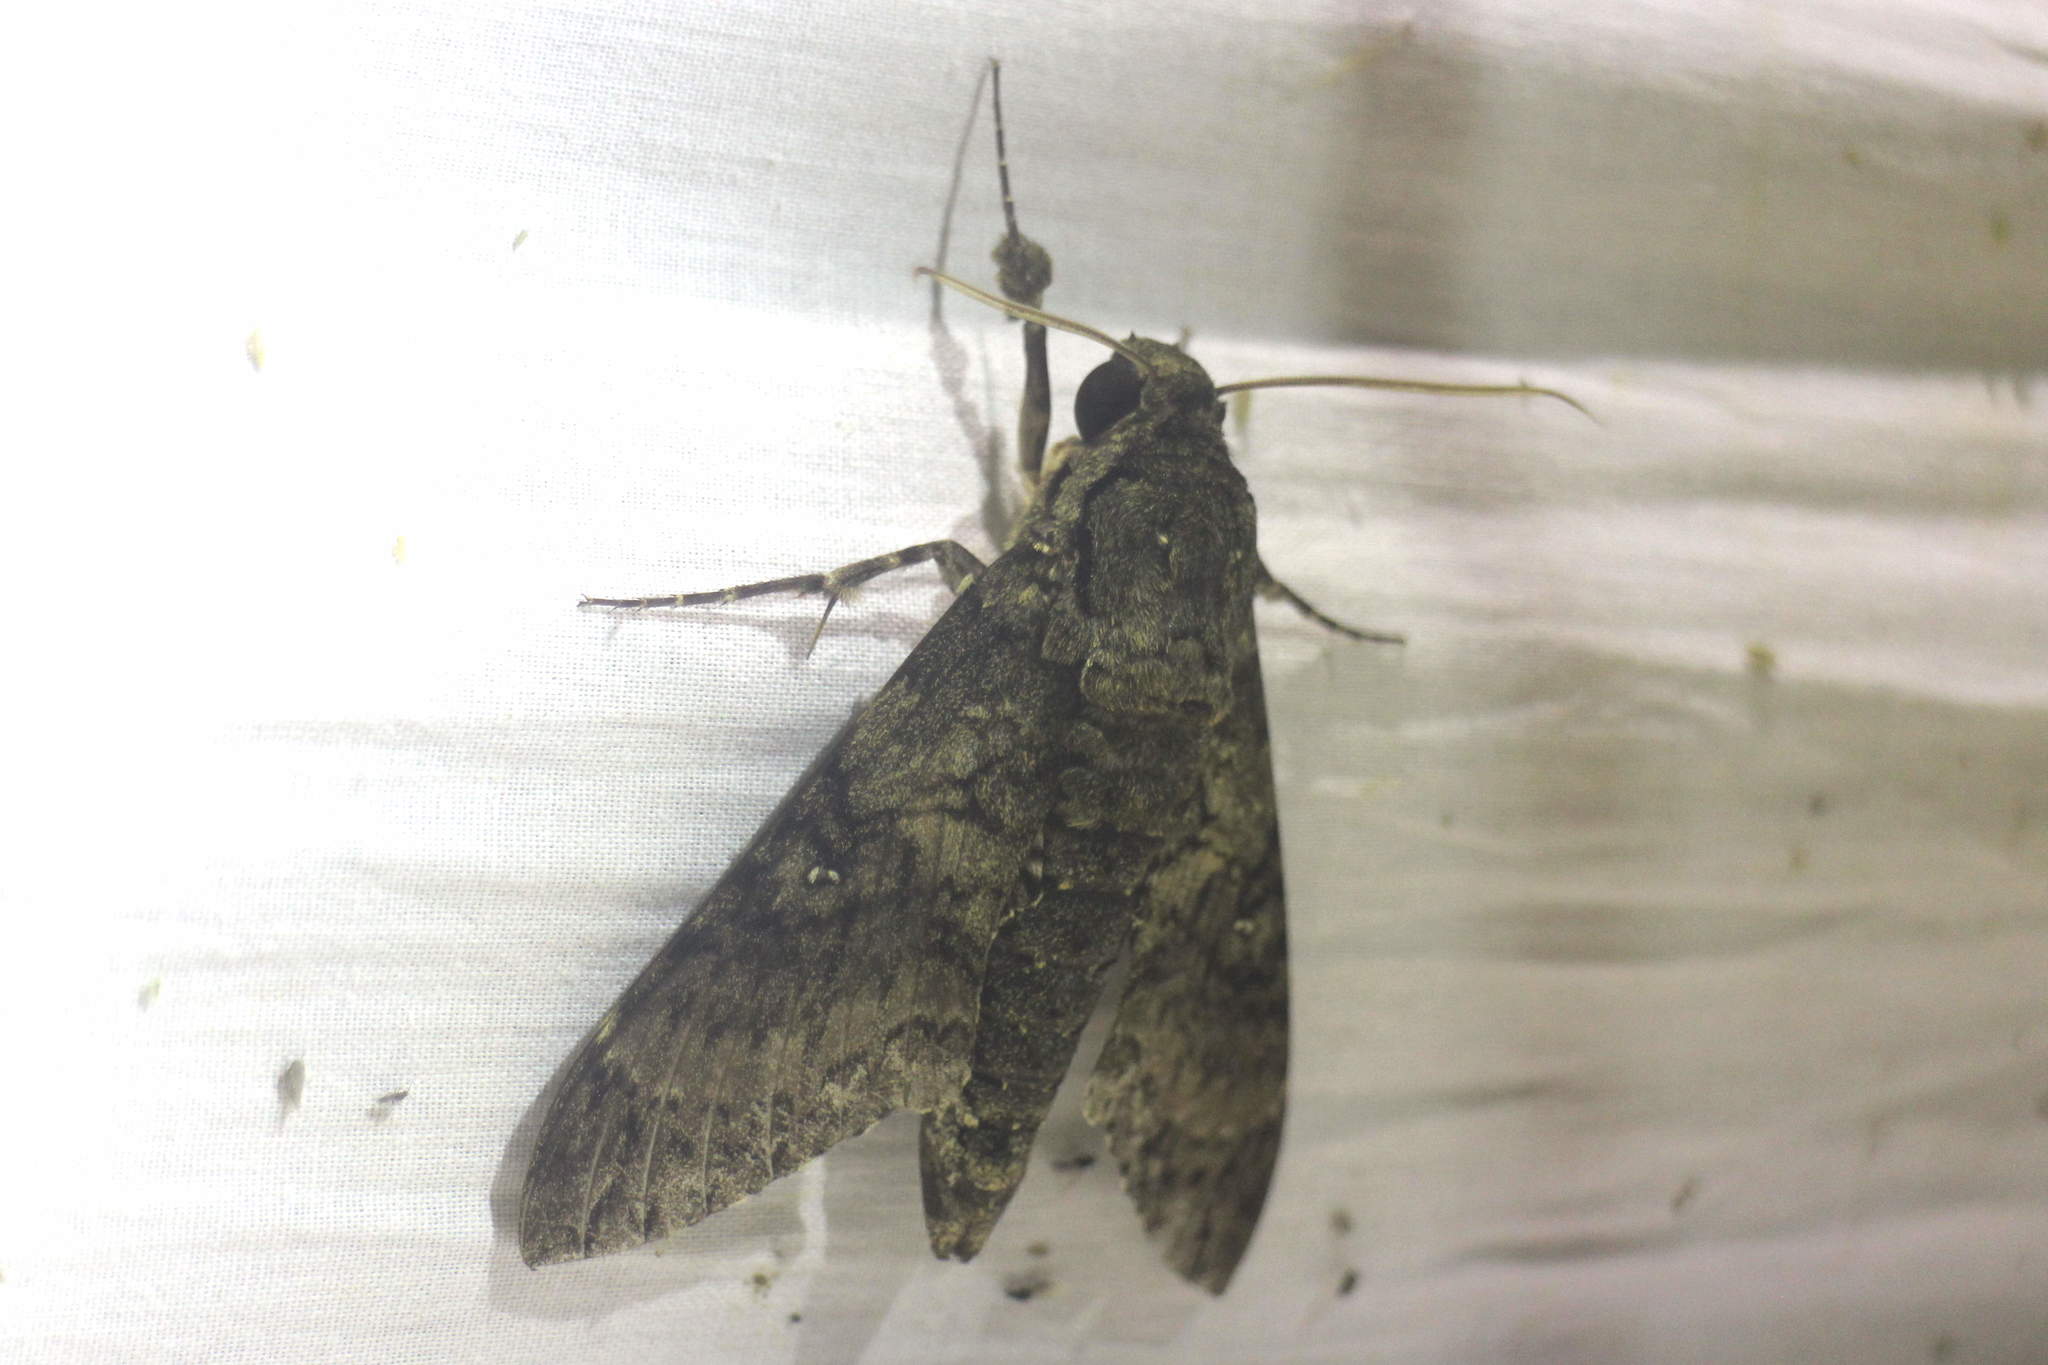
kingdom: Animalia
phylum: Arthropoda
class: Insecta
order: Lepidoptera
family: Sphingidae
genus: Cocytius
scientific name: Cocytius duponchel
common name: Duponchel's sphinx
